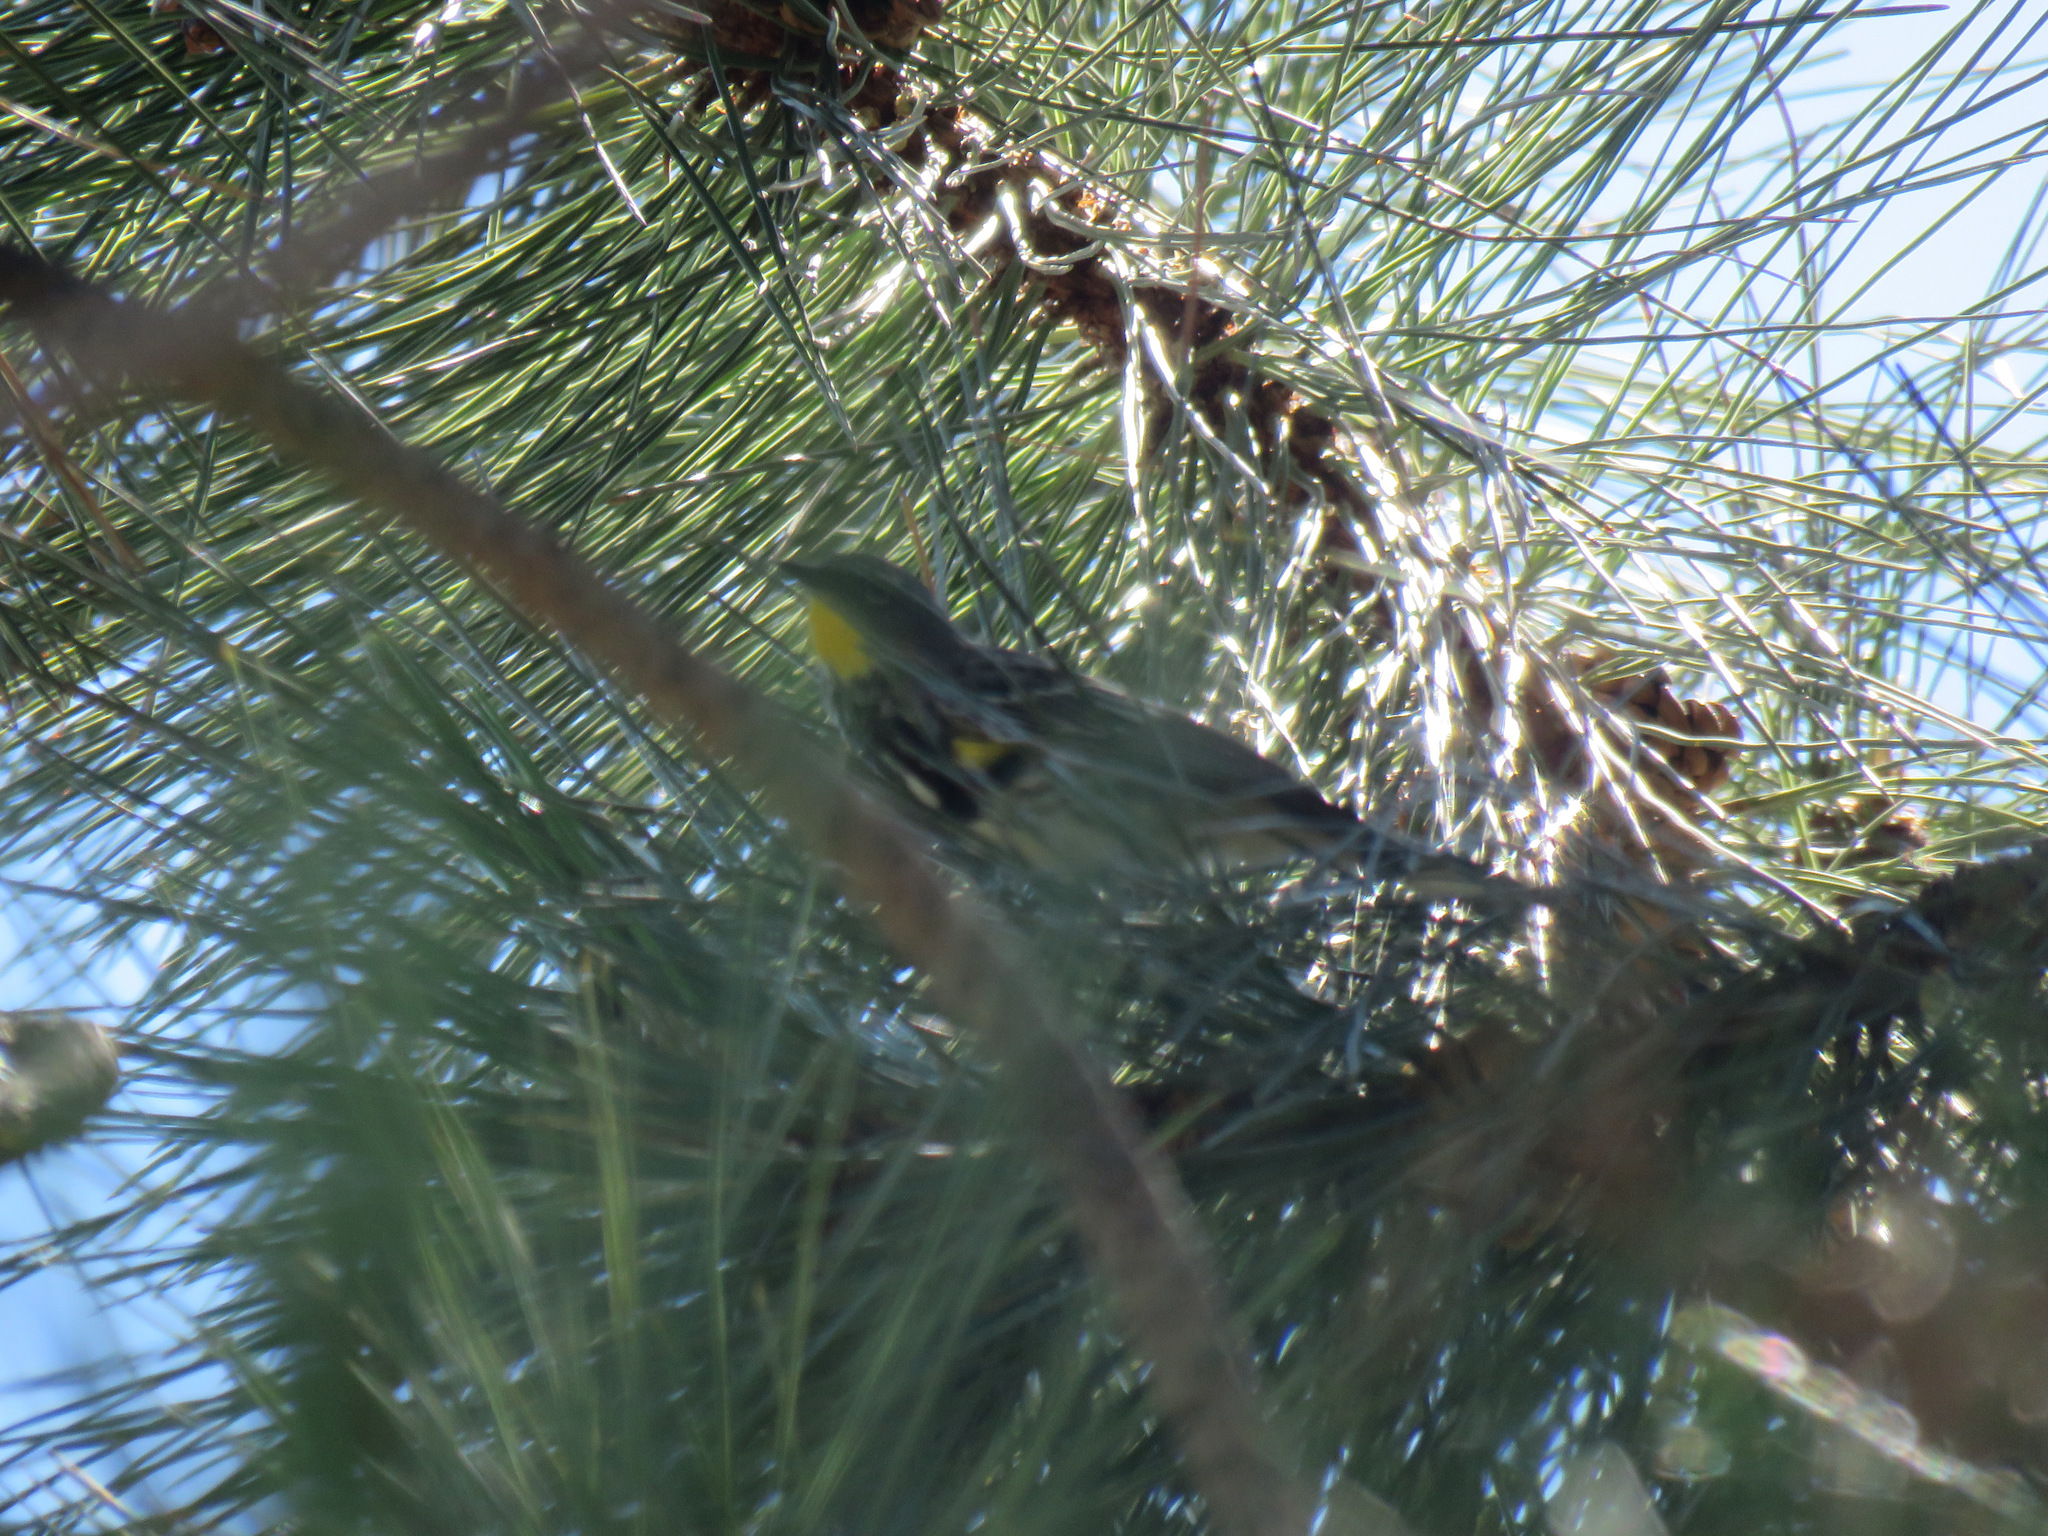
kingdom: Animalia
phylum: Chordata
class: Aves
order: Passeriformes
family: Parulidae
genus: Setophaga
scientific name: Setophaga coronata
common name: Myrtle warbler
